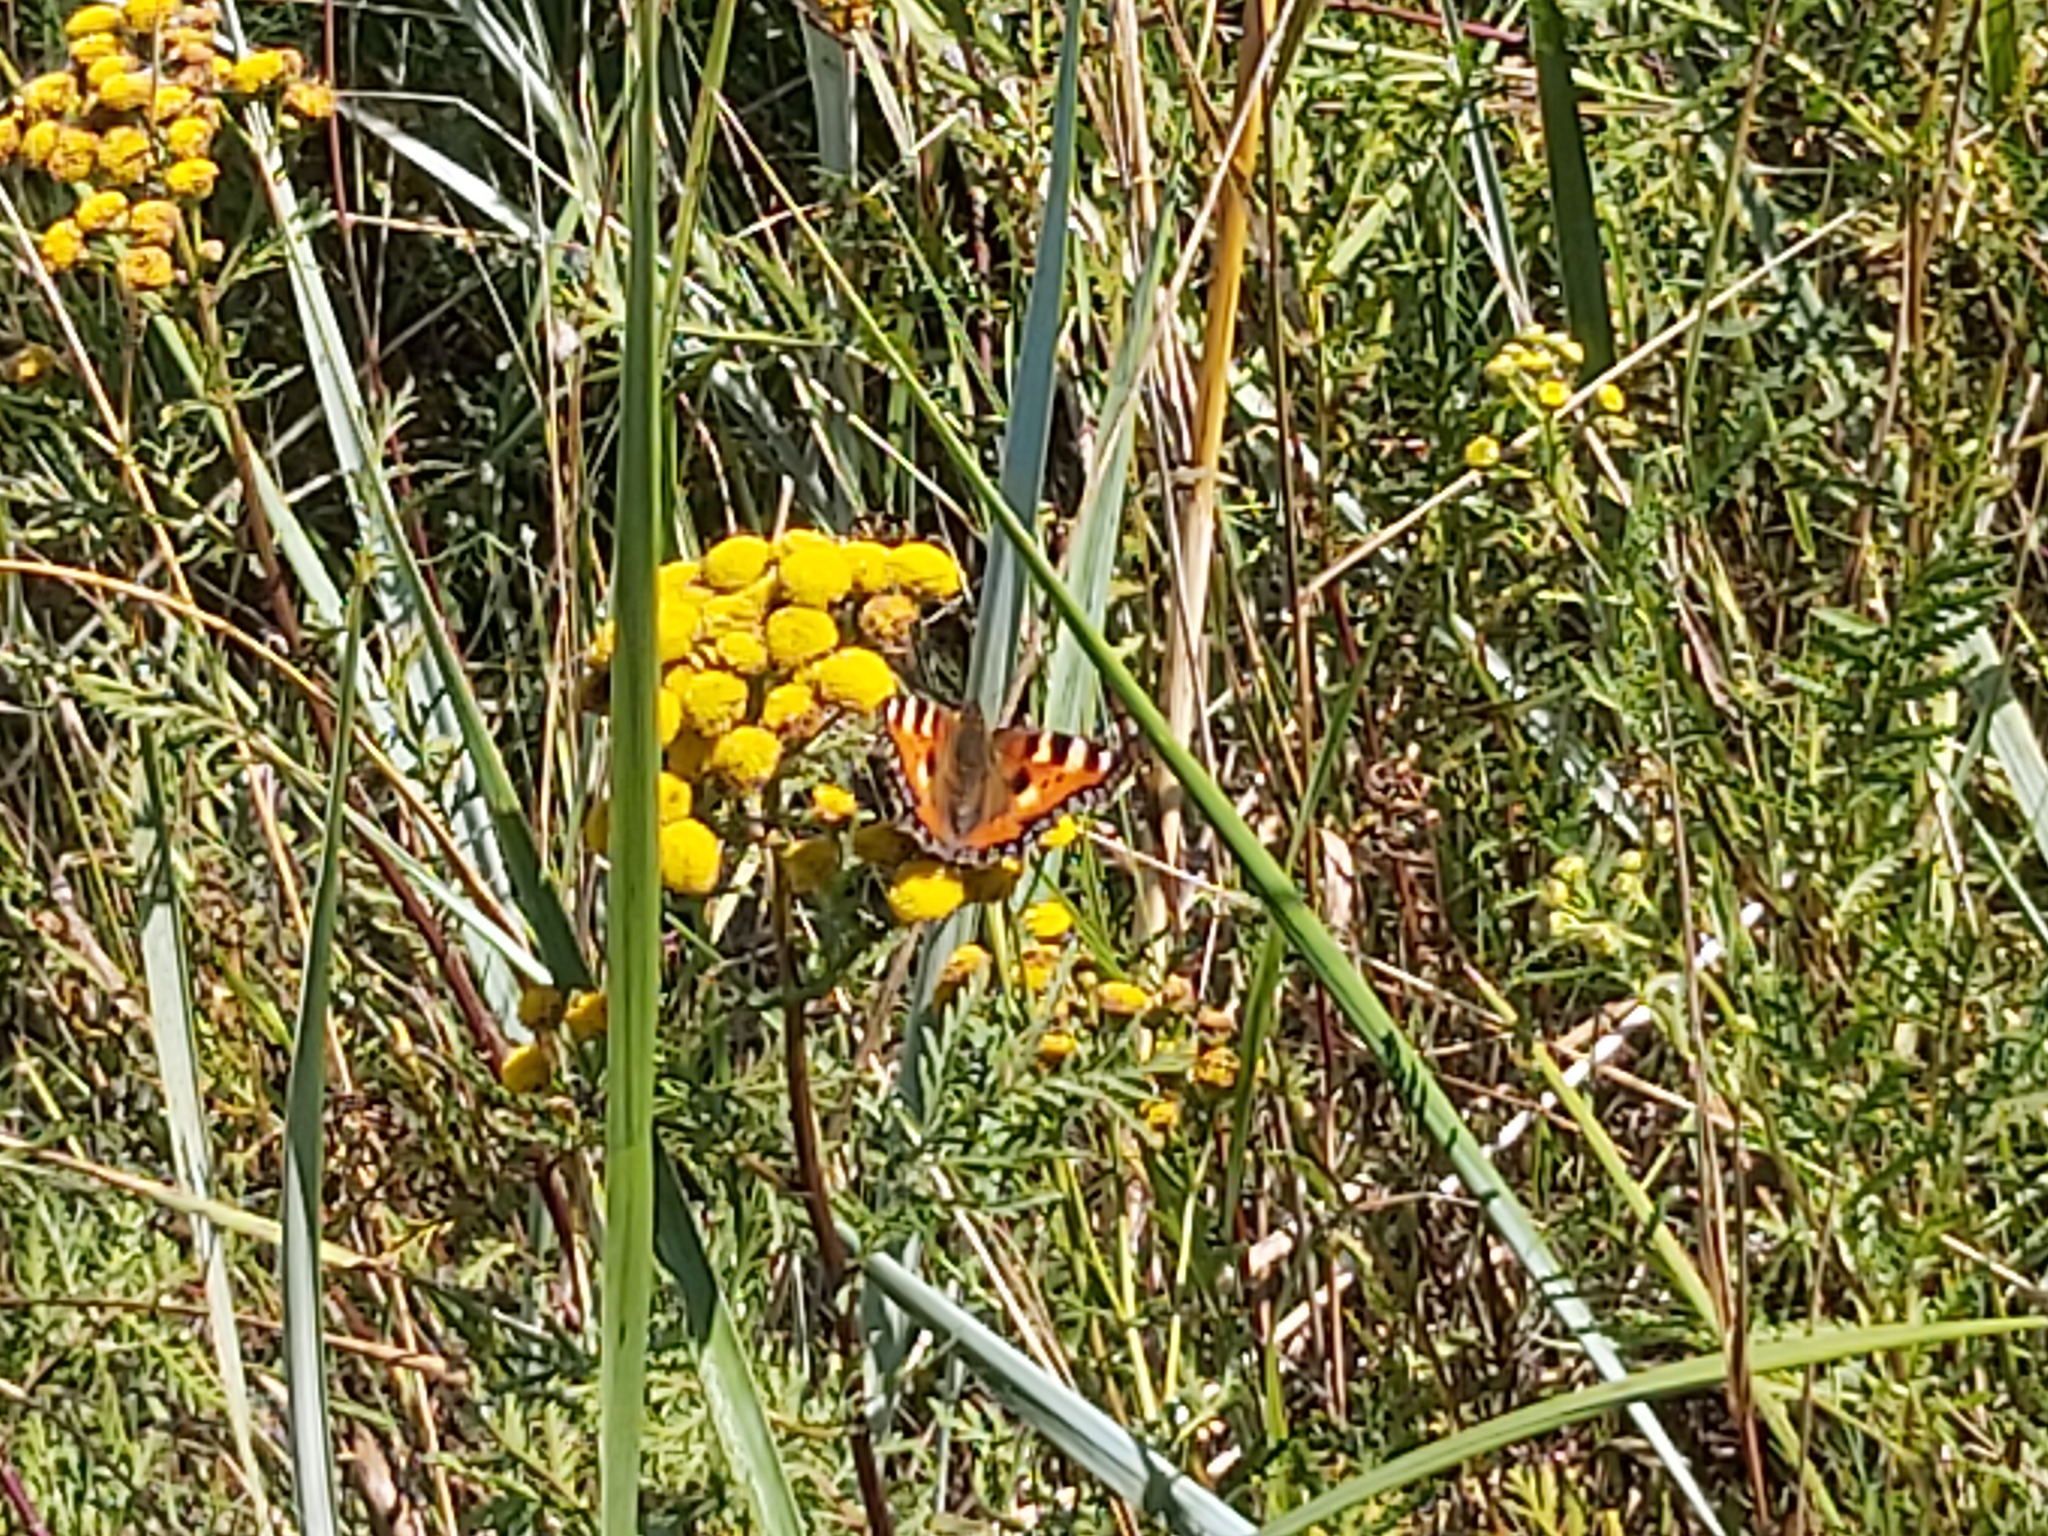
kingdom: Animalia
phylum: Arthropoda
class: Insecta
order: Lepidoptera
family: Nymphalidae
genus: Aglais
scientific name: Aglais urticae
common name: Small tortoiseshell
